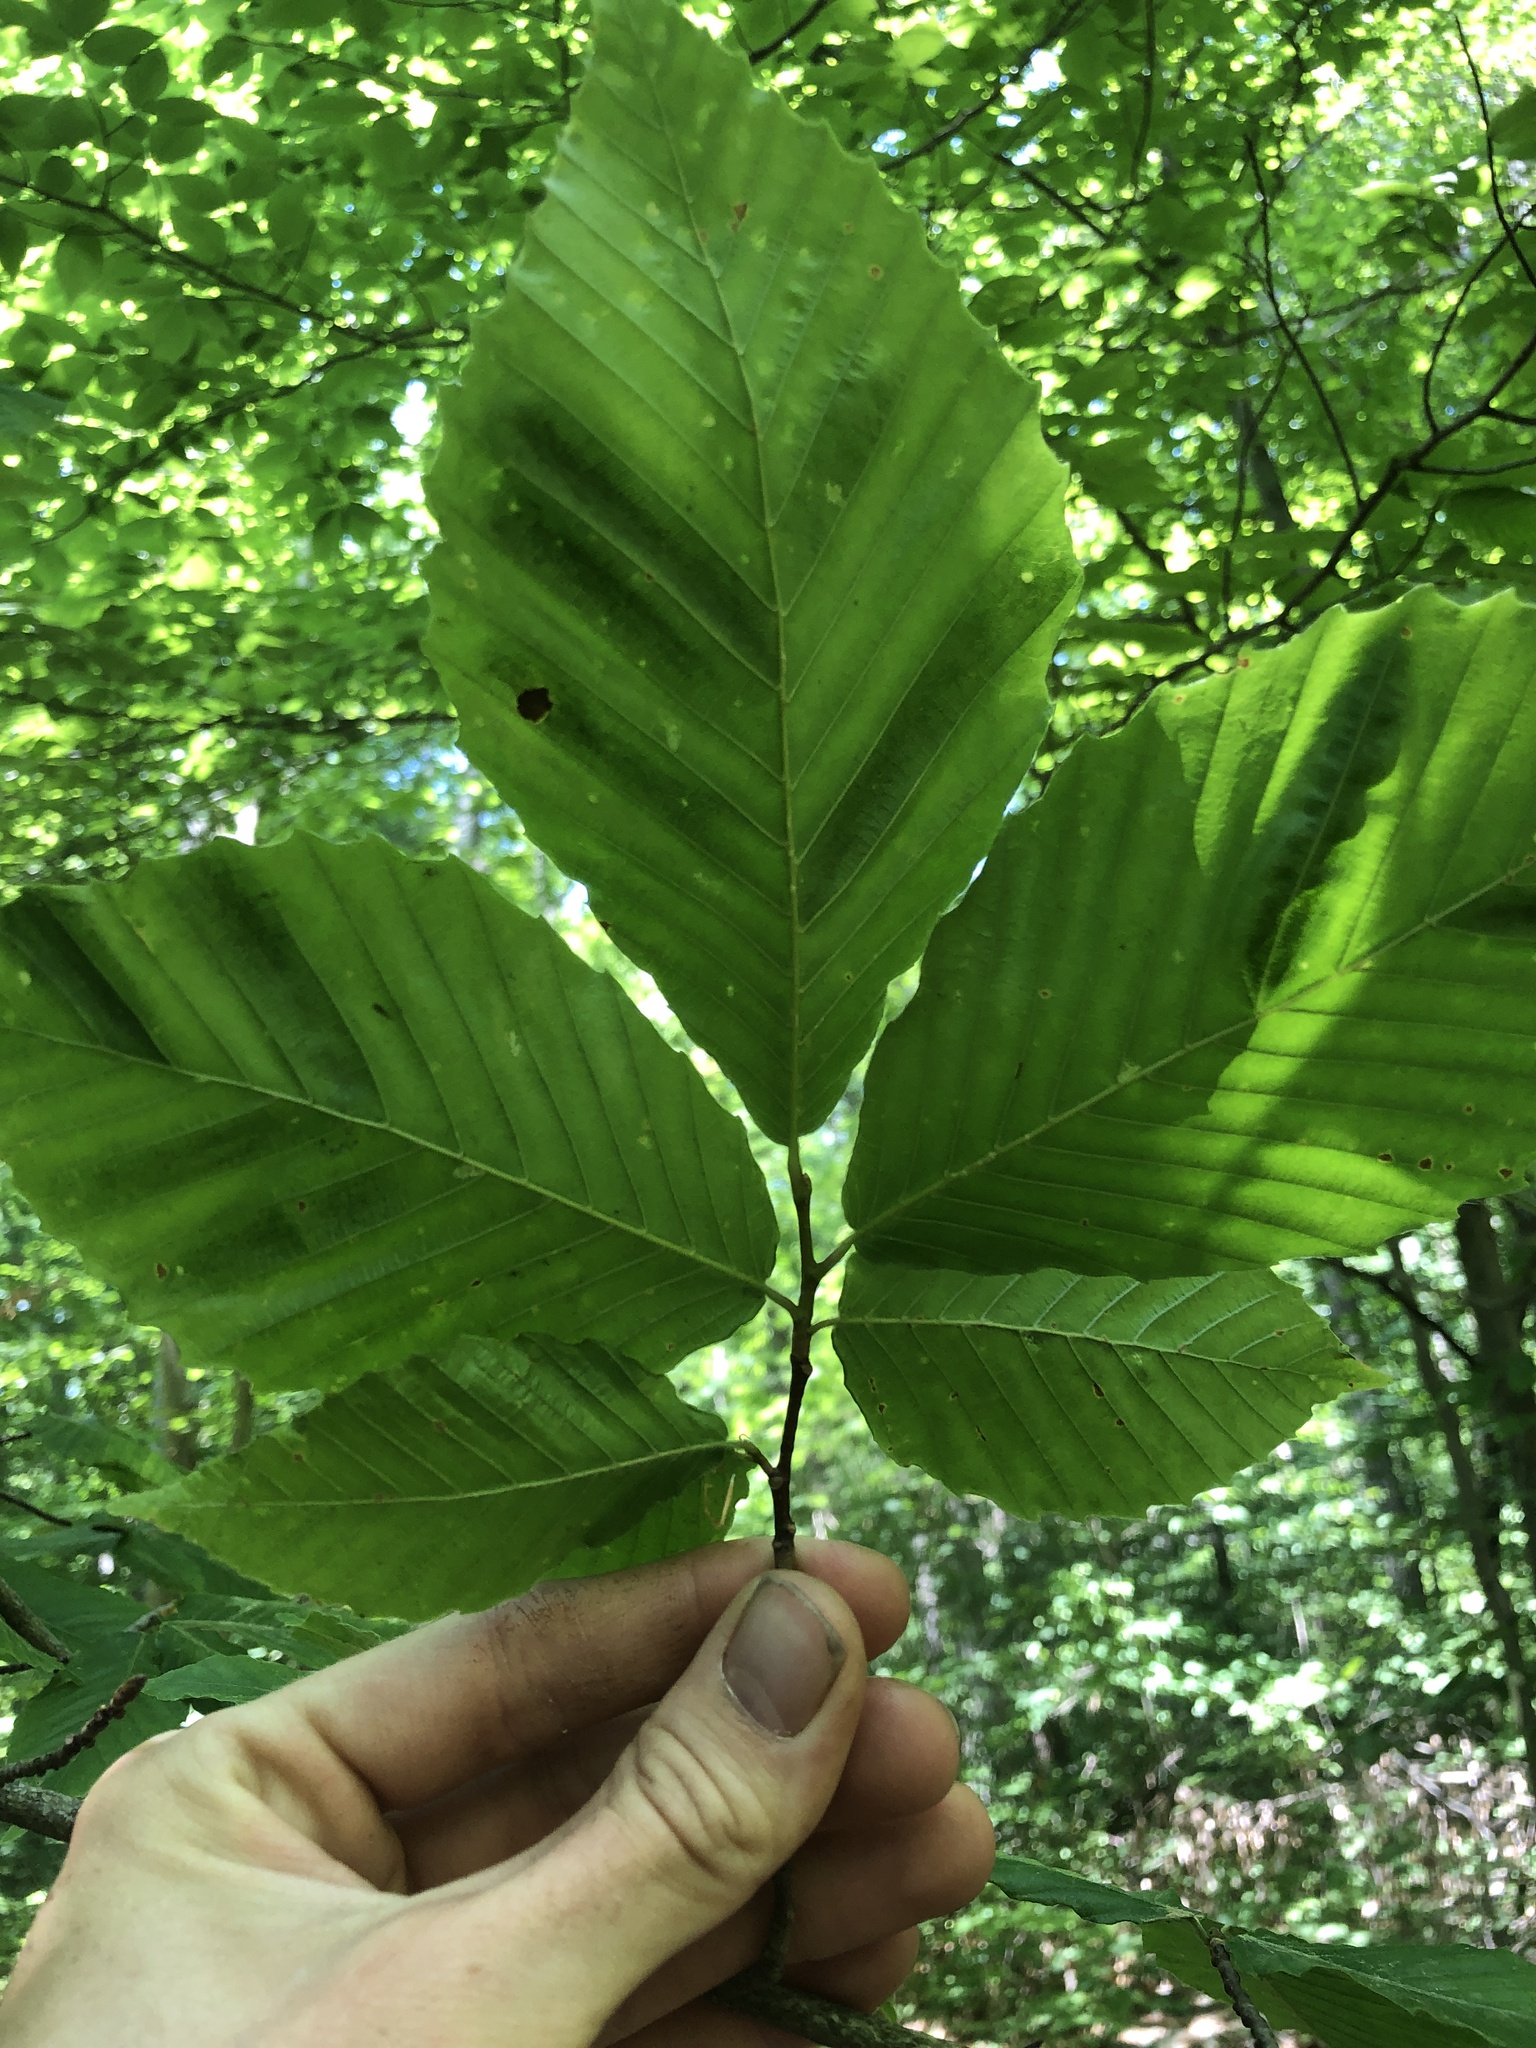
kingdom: Animalia
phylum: Nematoda
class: Chromadorea
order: Rhabditida
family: Anguinidae
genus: Litylenchus
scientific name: Litylenchus crenatae
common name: Beech leaf disease
